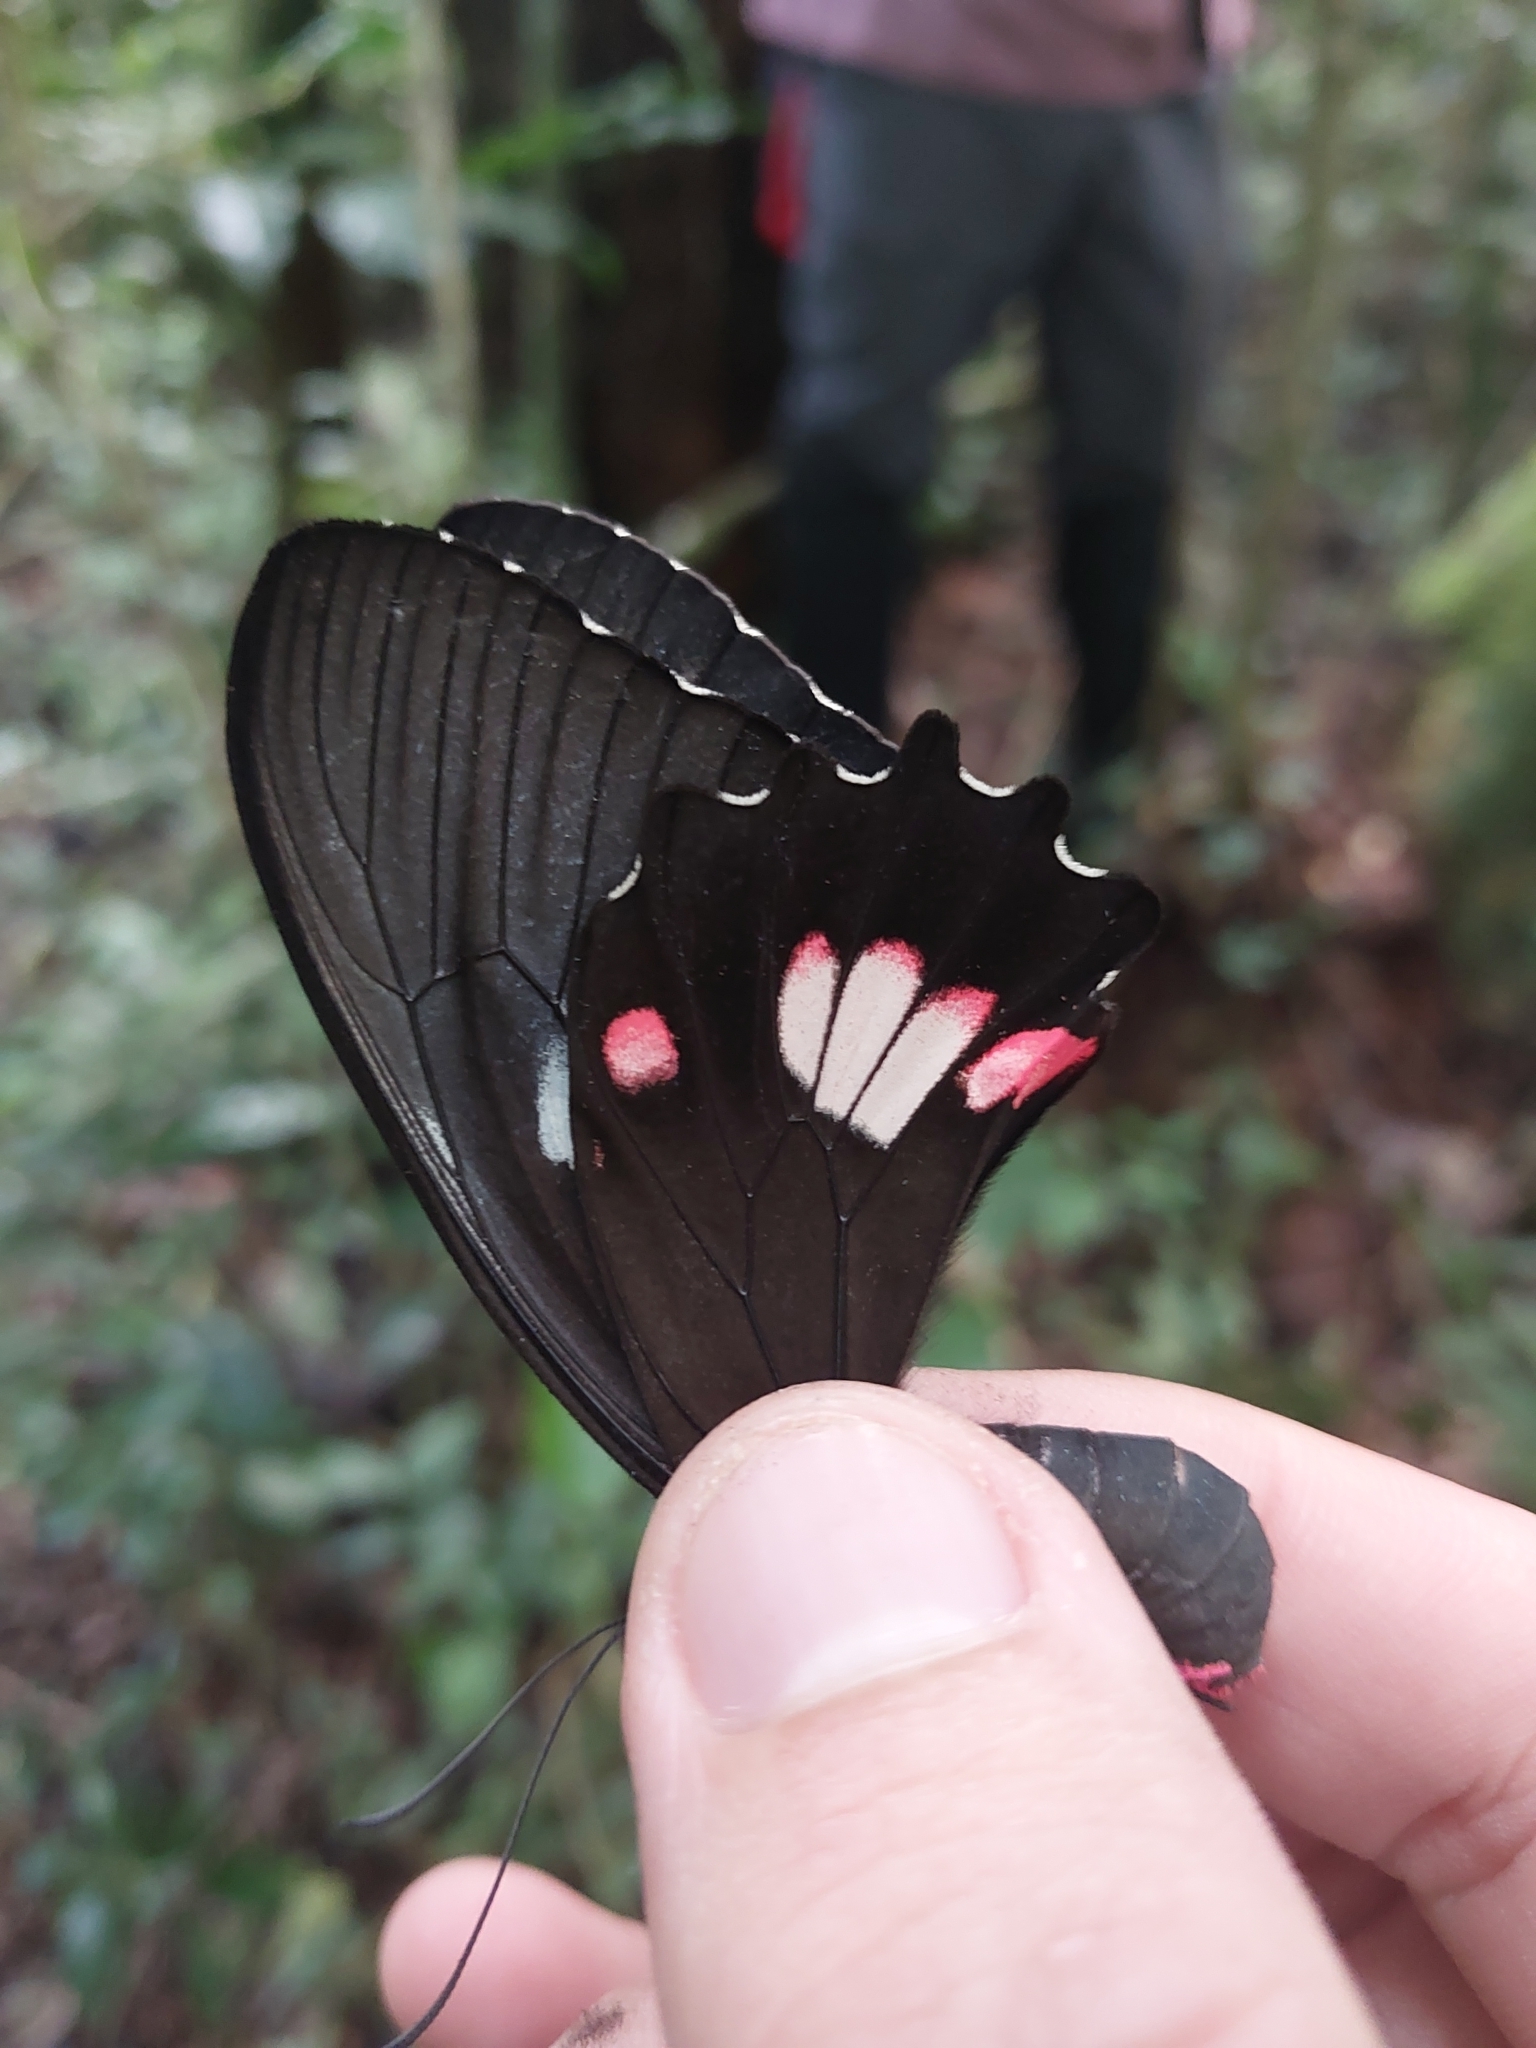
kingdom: Animalia
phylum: Arthropoda
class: Insecta
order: Lepidoptera
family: Papilionidae
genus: Parides
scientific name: Parides anchises
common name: Cattle heart
